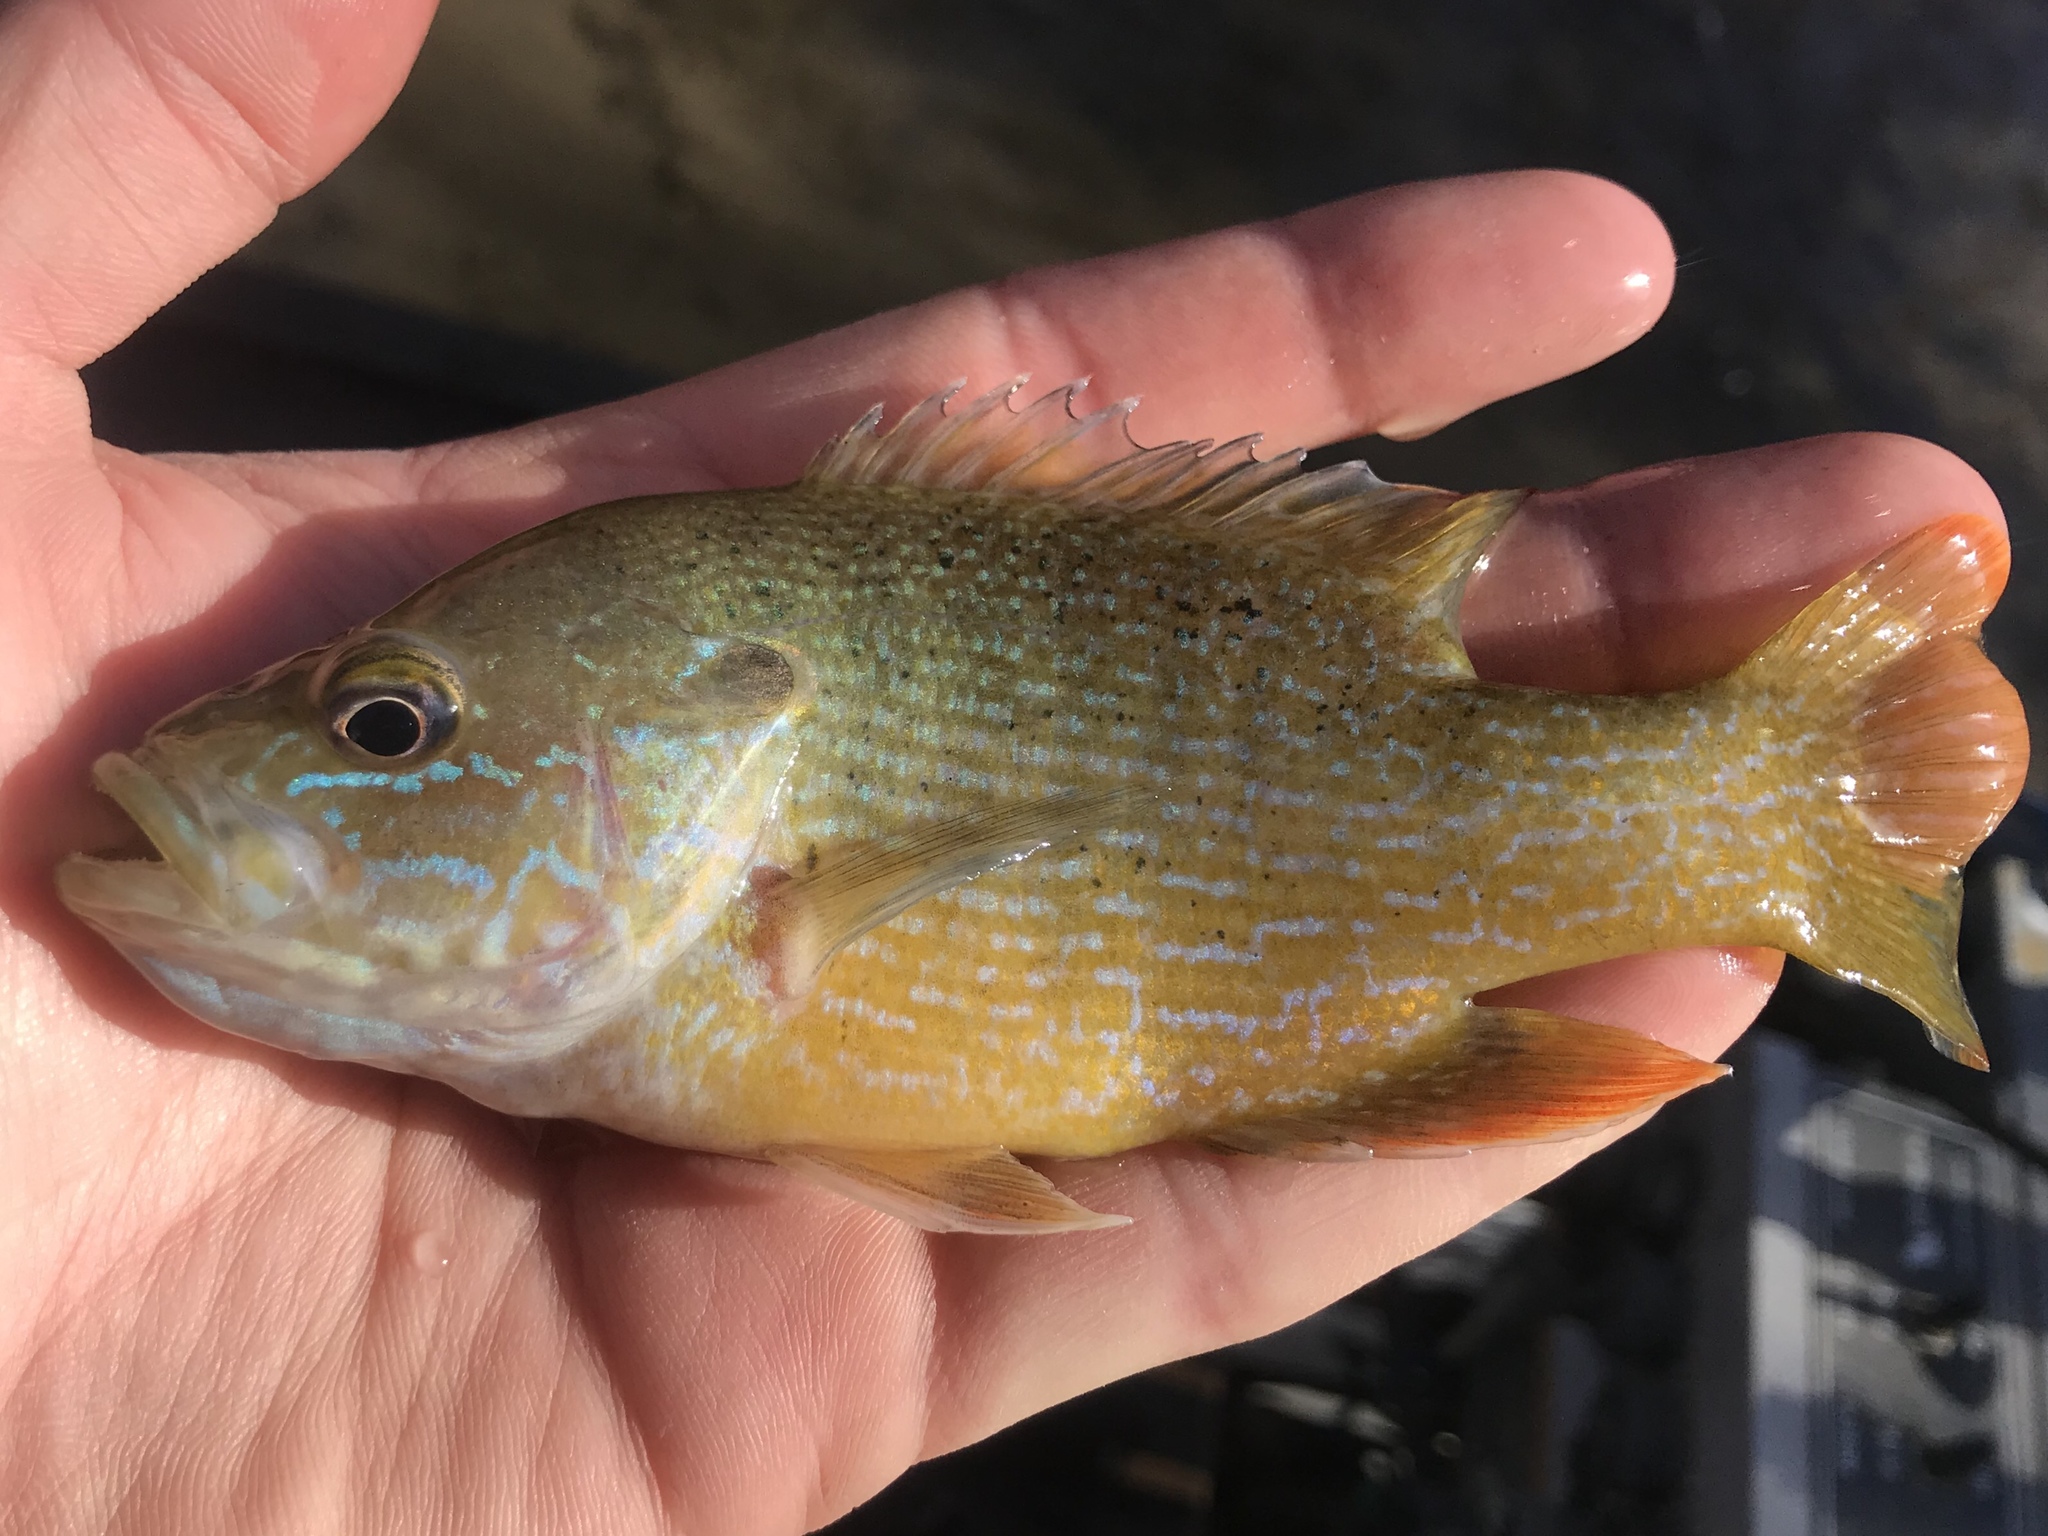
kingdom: Animalia
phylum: Chordata
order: Perciformes
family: Centrarchidae
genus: Lepomis
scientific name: Lepomis cyanellus
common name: Green sunfish
